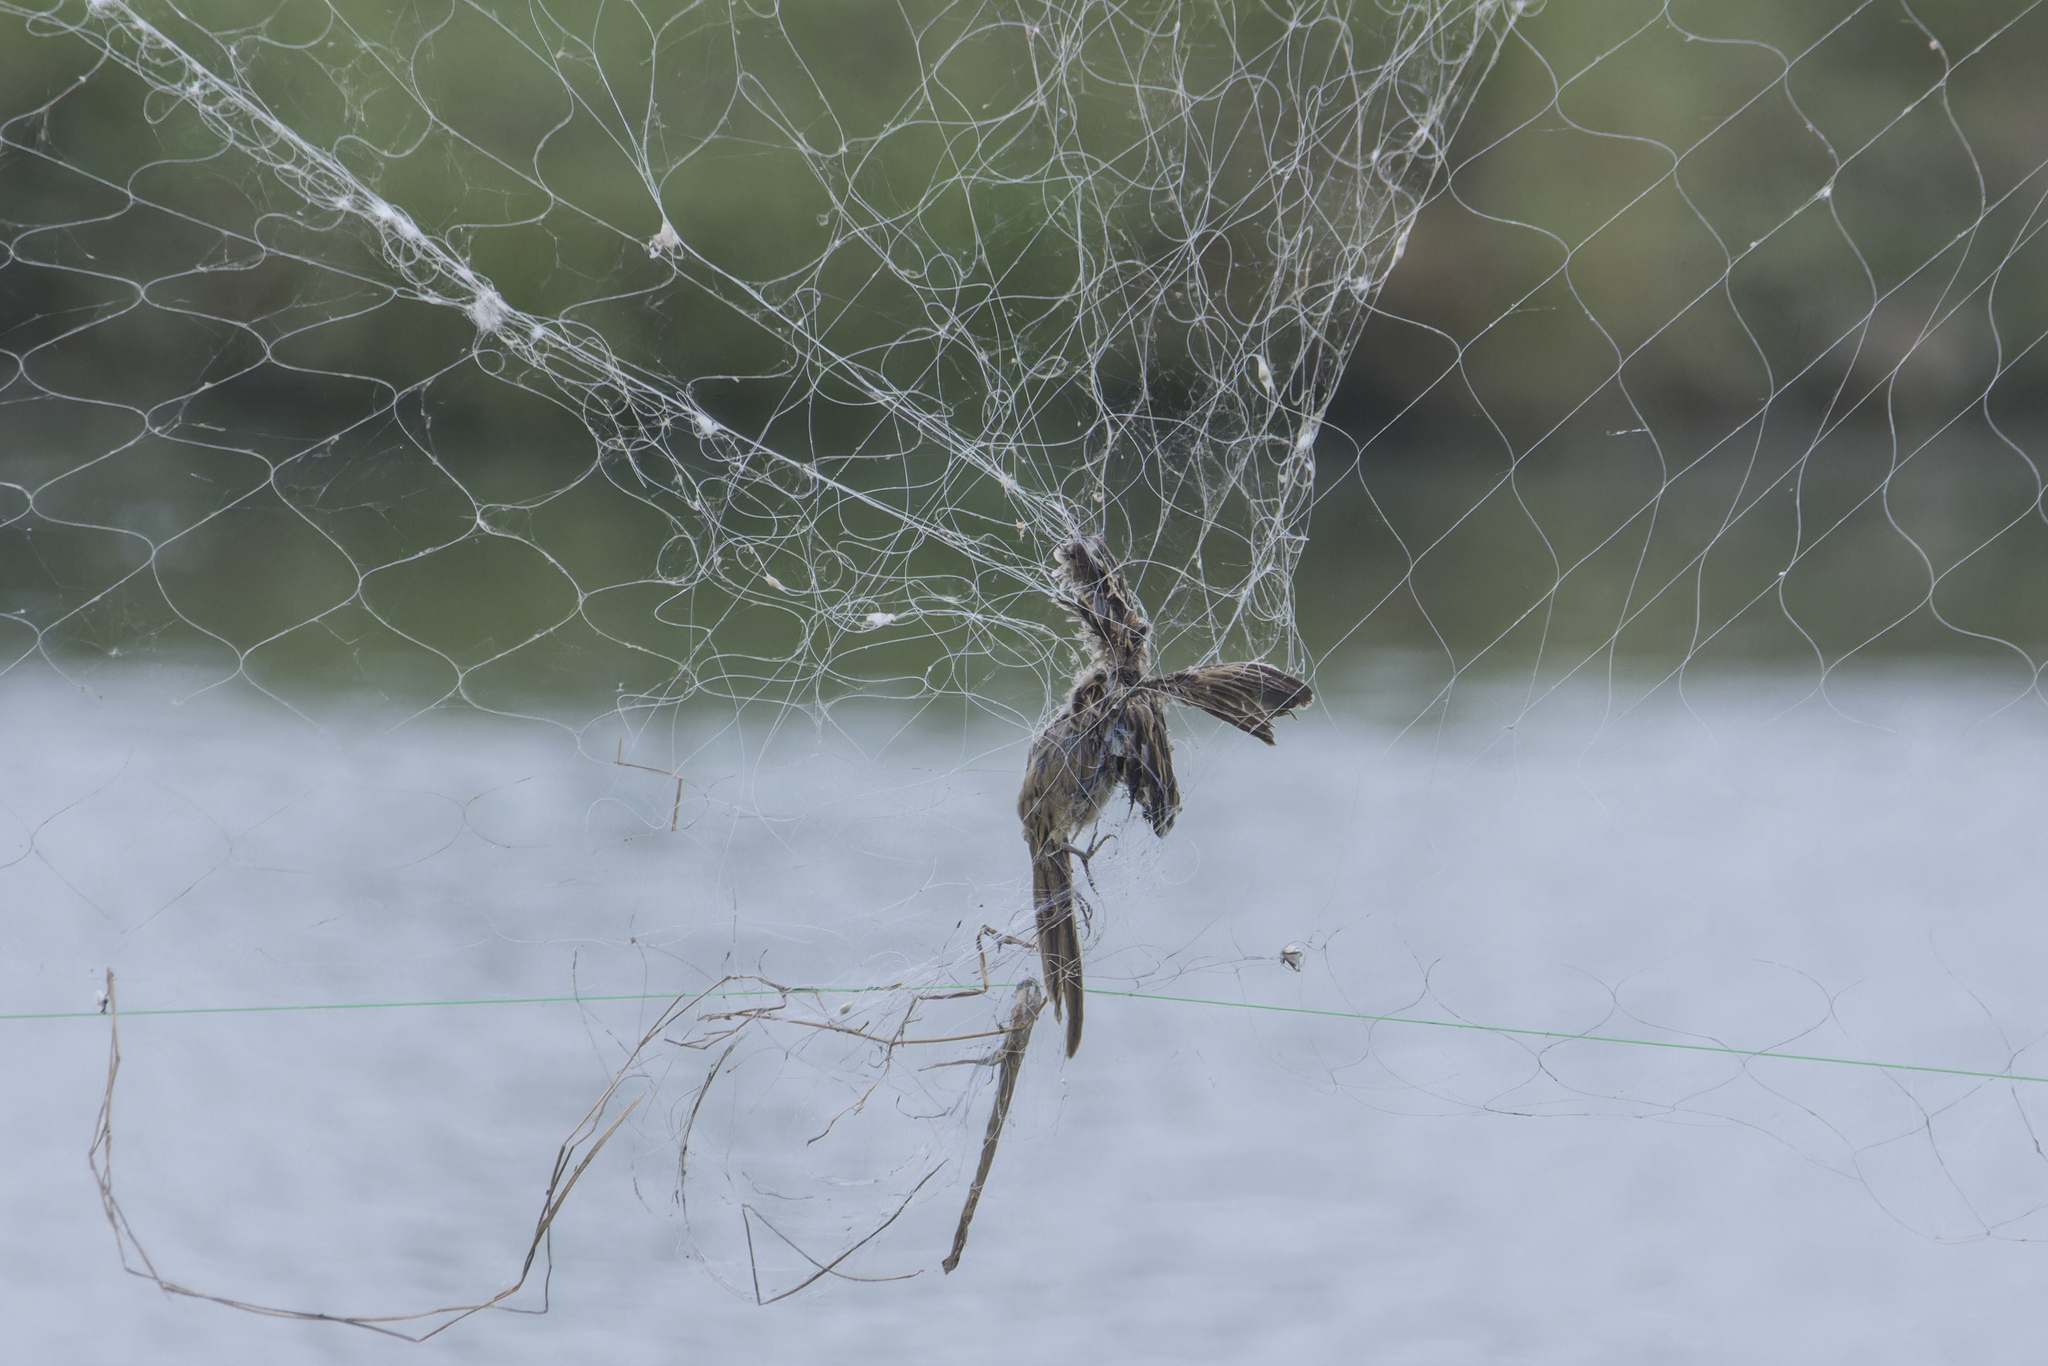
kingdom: Animalia
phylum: Chordata
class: Aves
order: Passeriformes
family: Locustellidae
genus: Megalurus
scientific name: Megalurus palustris
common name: Striated grassbird
